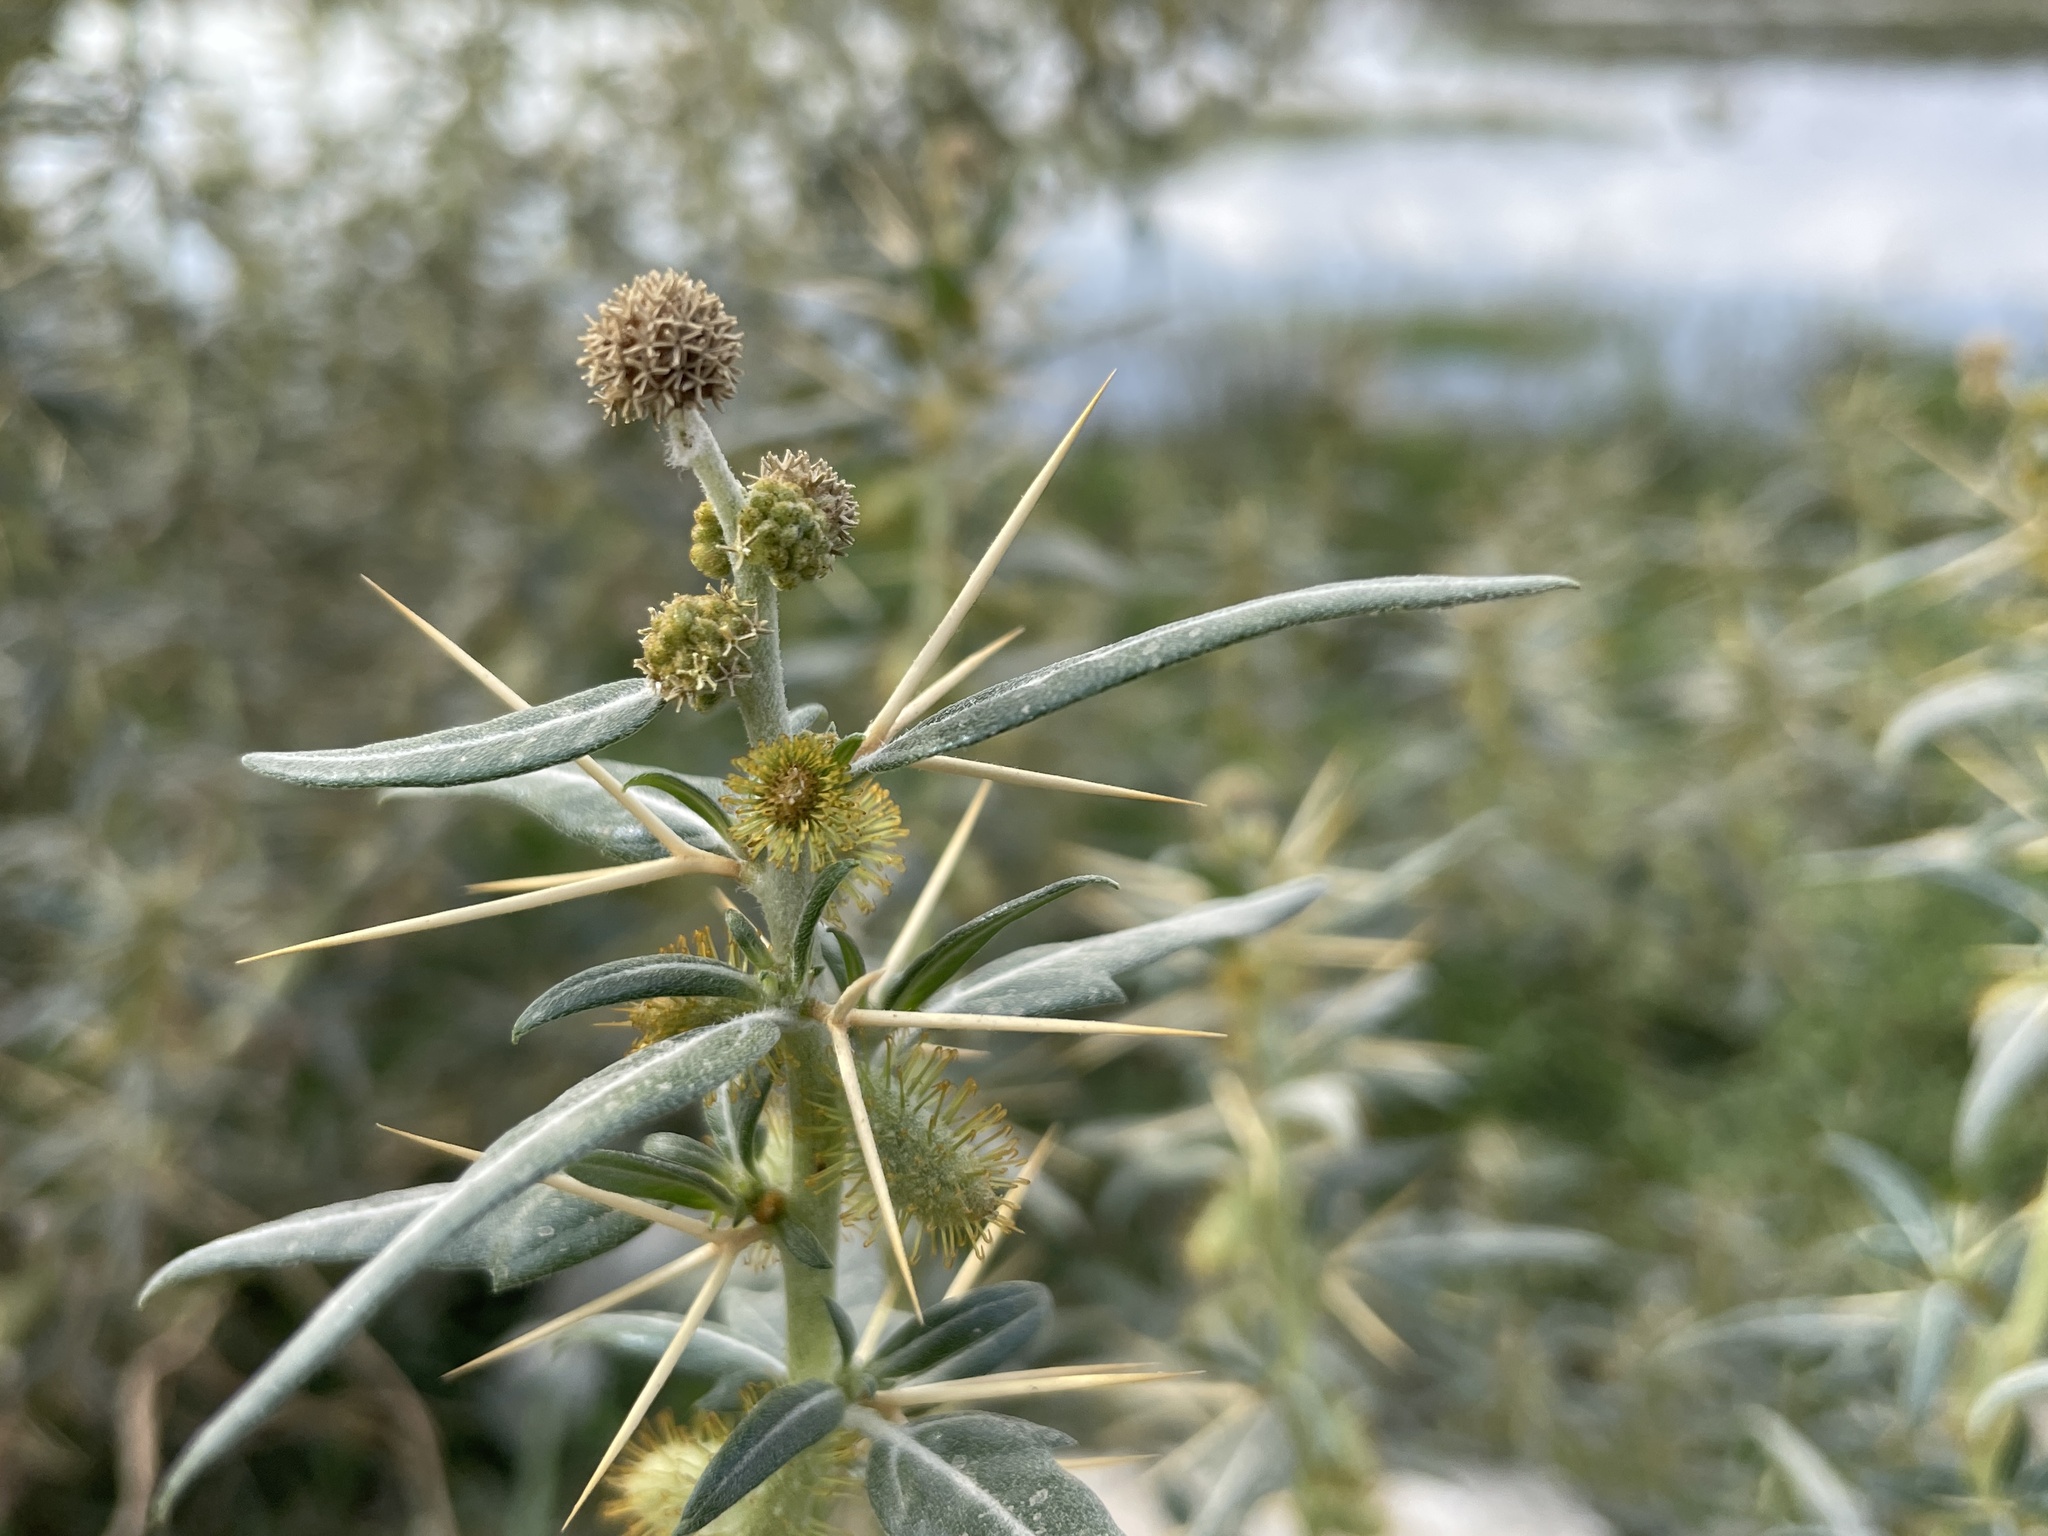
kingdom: Plantae
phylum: Tracheophyta
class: Magnoliopsida
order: Asterales
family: Asteraceae
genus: Xanthium
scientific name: Xanthium spinosum
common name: Spiny cocklebur
